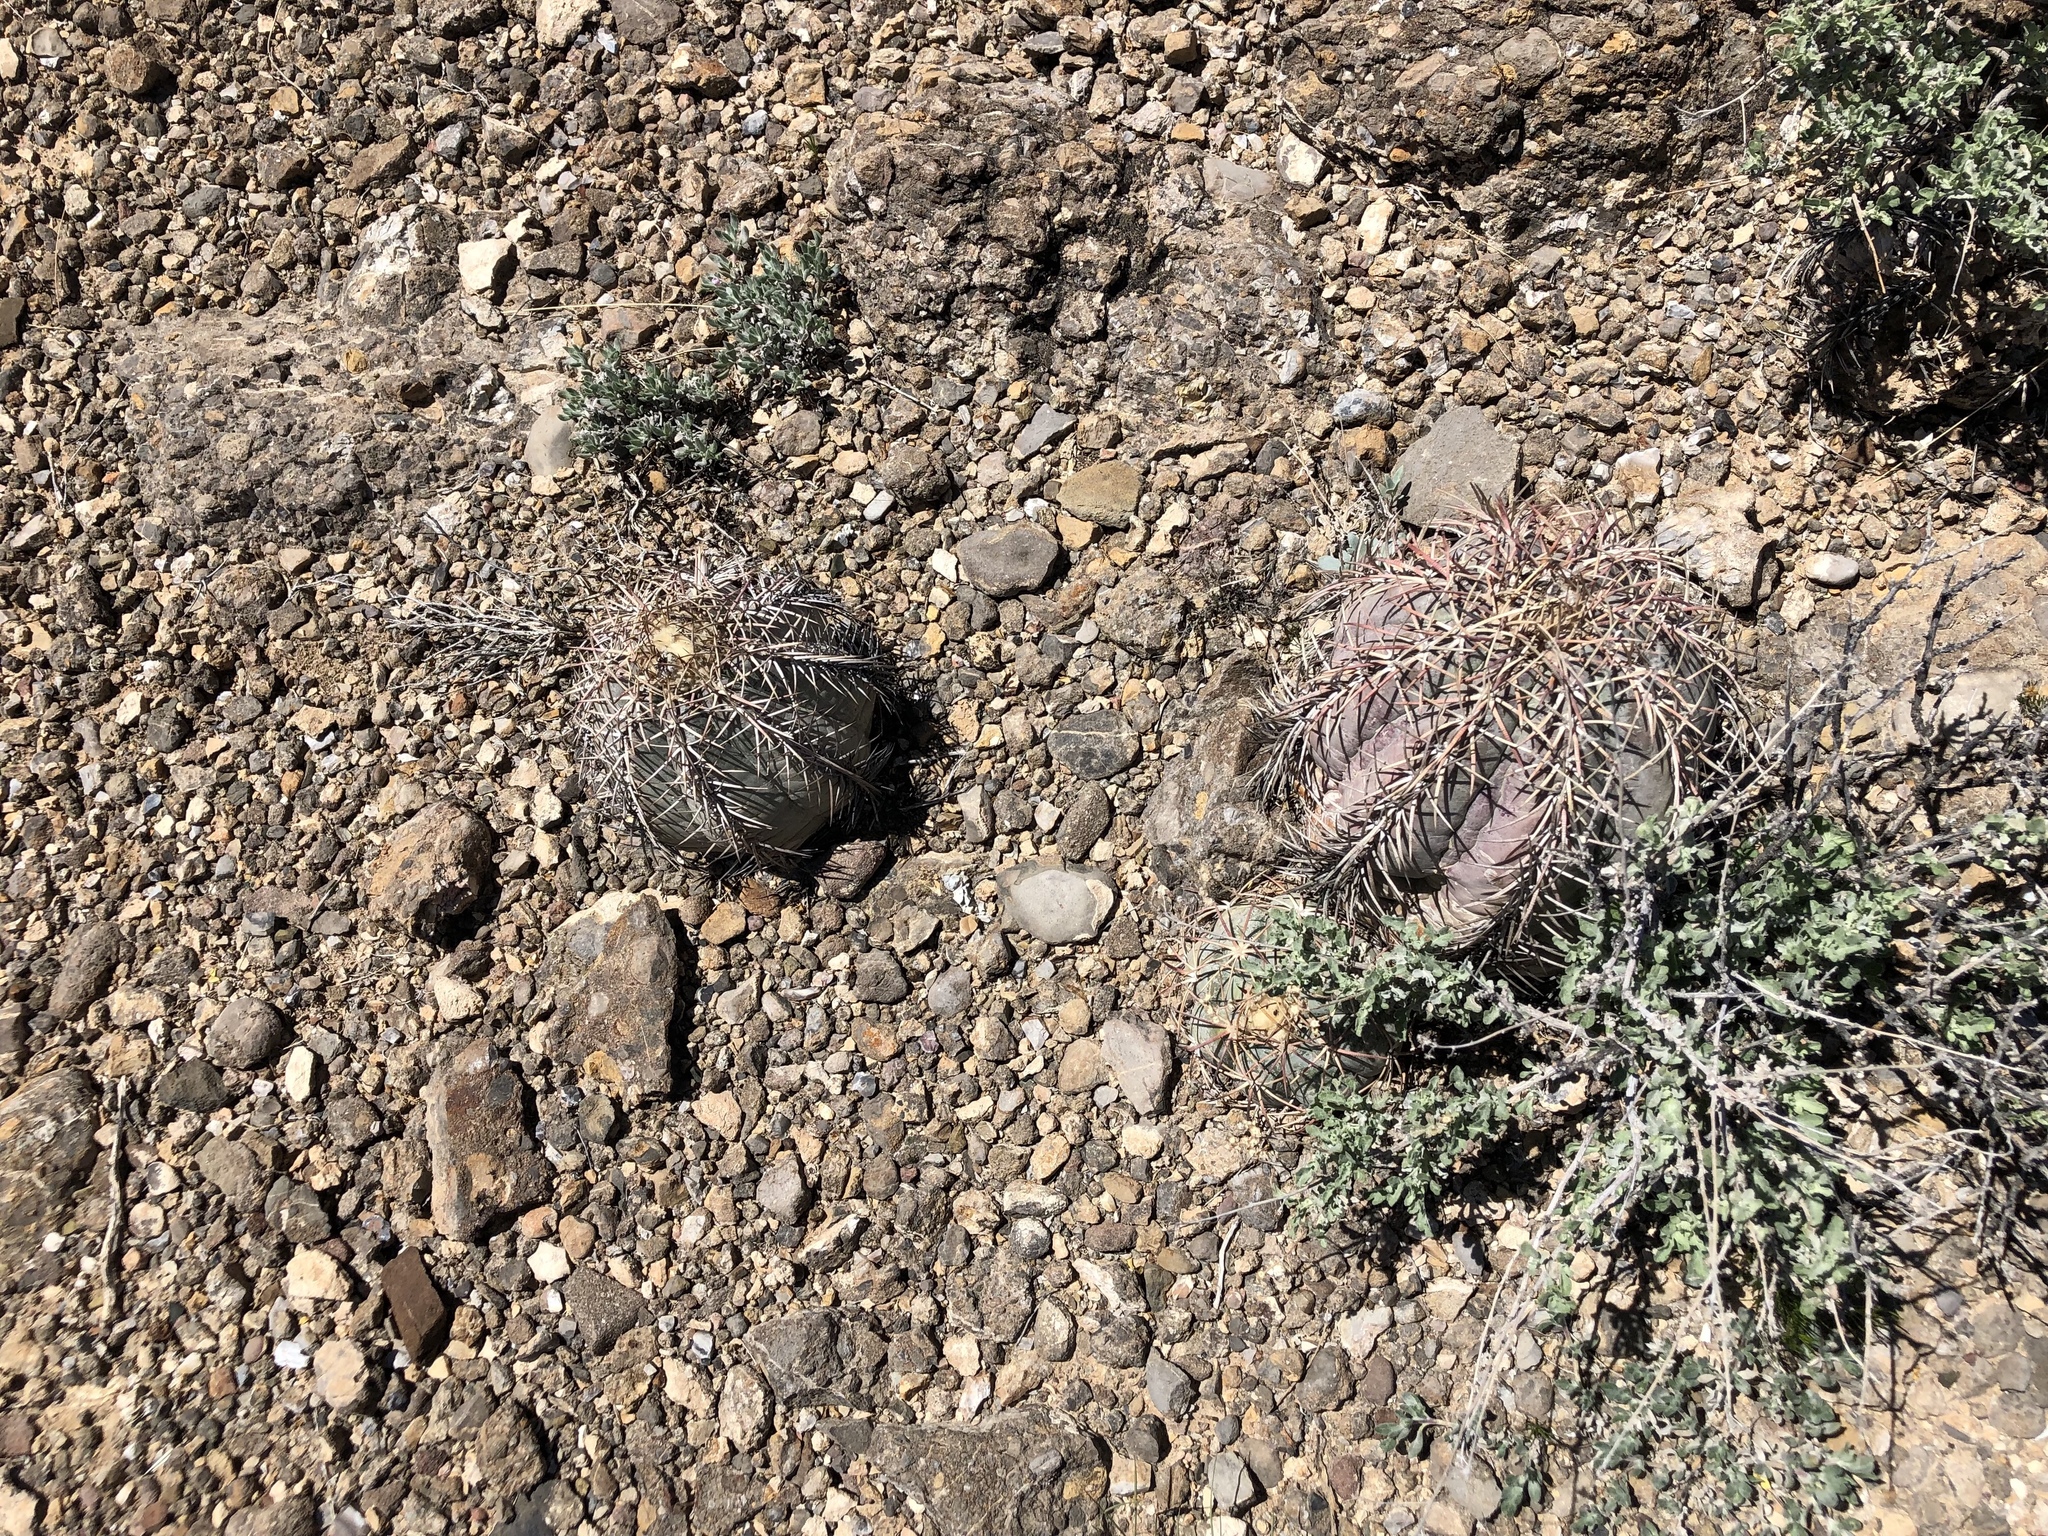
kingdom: Plantae
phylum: Tracheophyta
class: Magnoliopsida
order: Caryophyllales
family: Cactaceae
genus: Echinocactus
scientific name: Echinocactus horizonthalonius
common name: Devilshead
